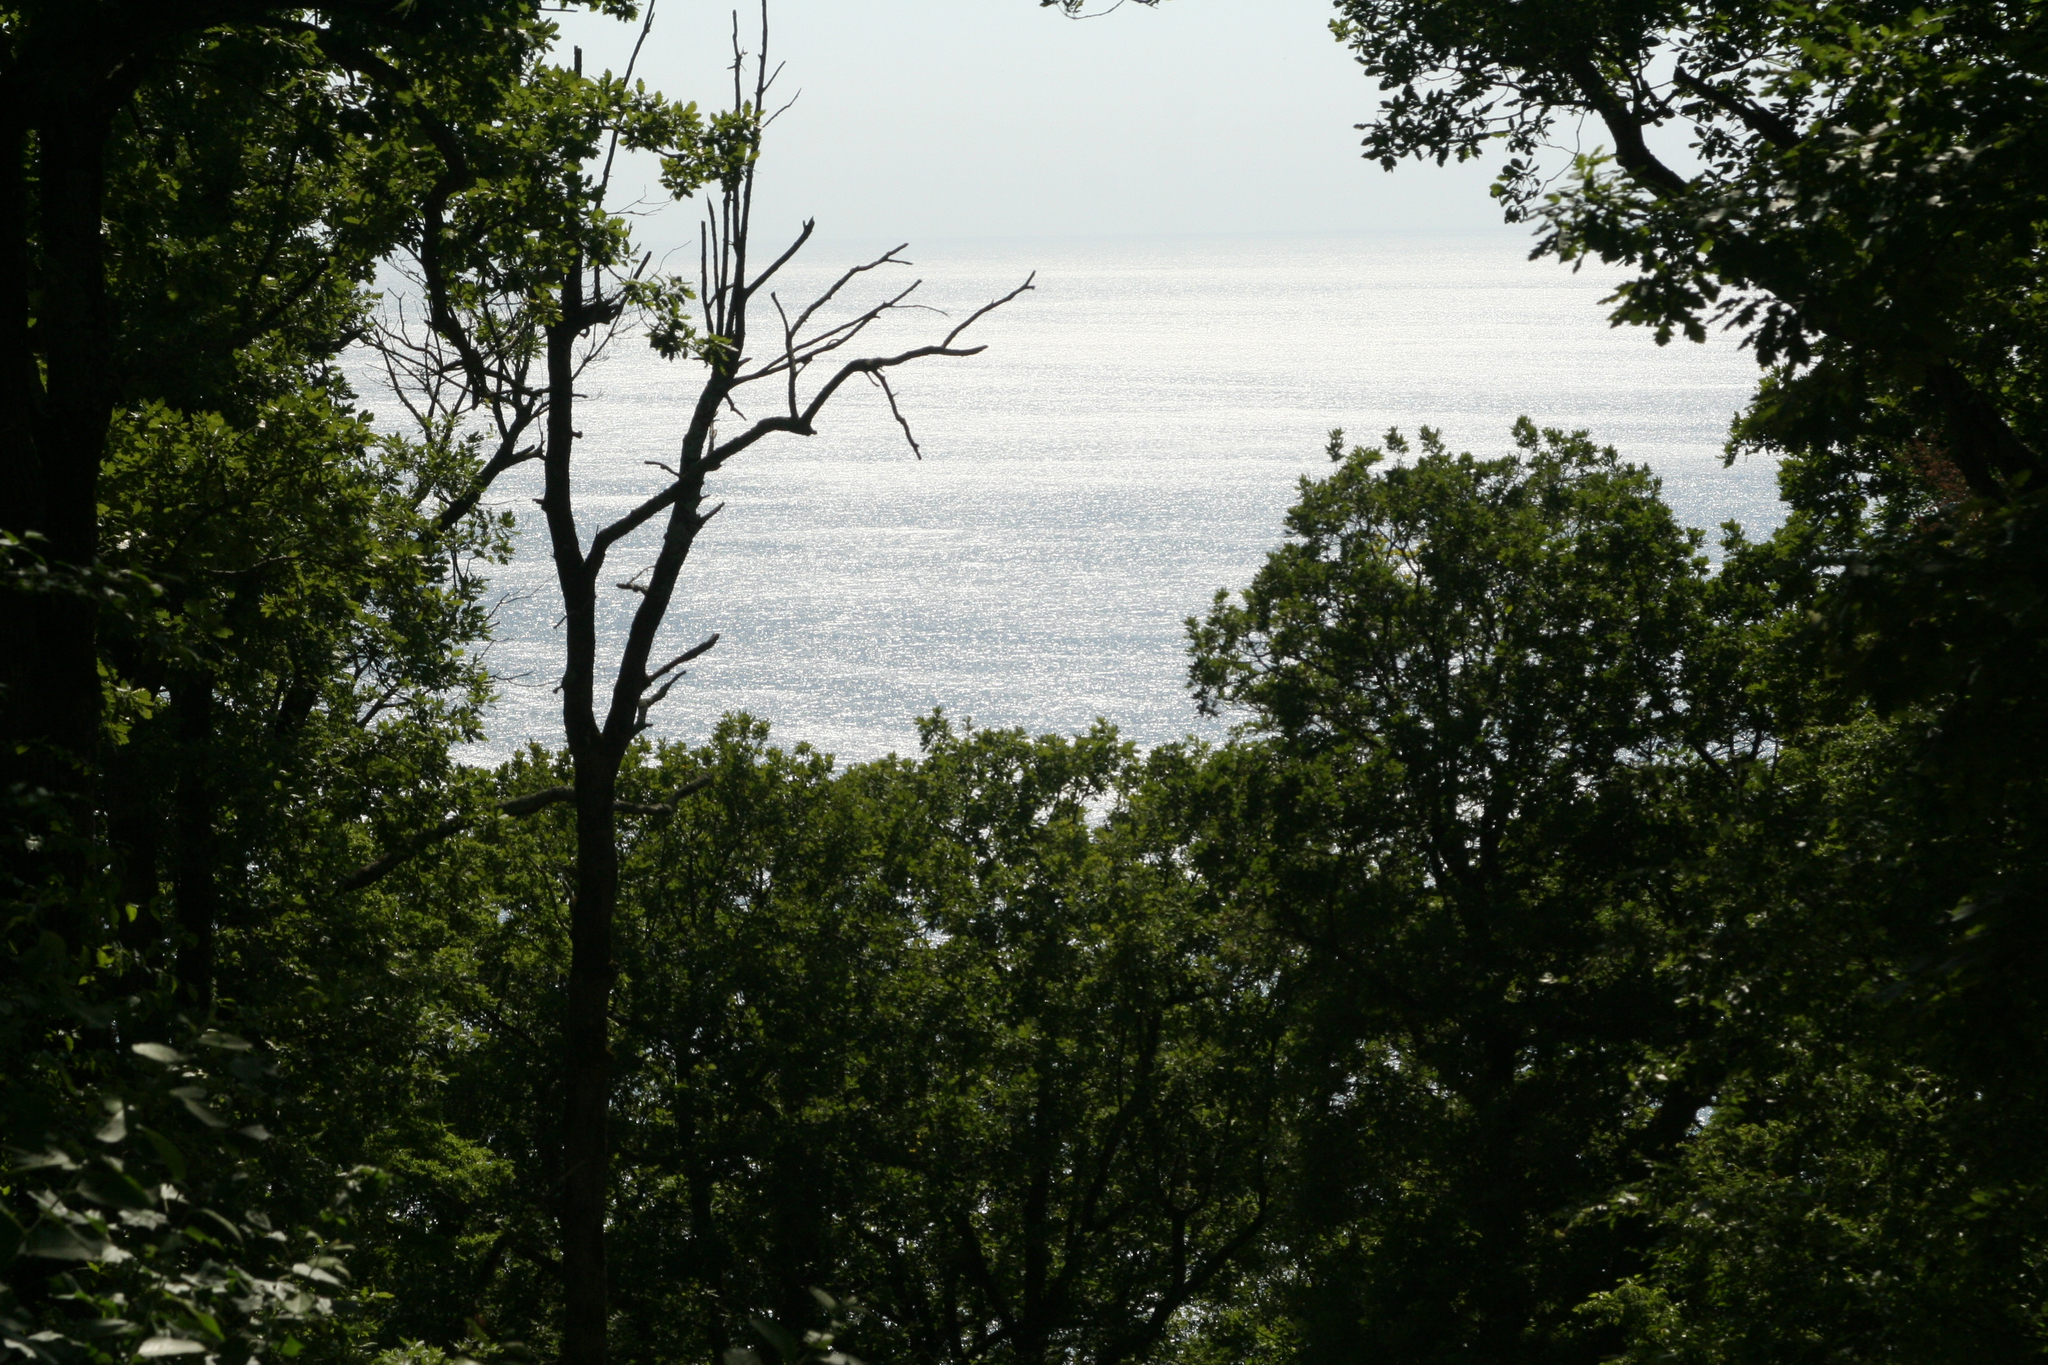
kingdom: Plantae
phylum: Tracheophyta
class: Magnoliopsida
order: Fagales
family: Fagaceae
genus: Quercus
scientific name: Quercus pubescens
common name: Downy oak
